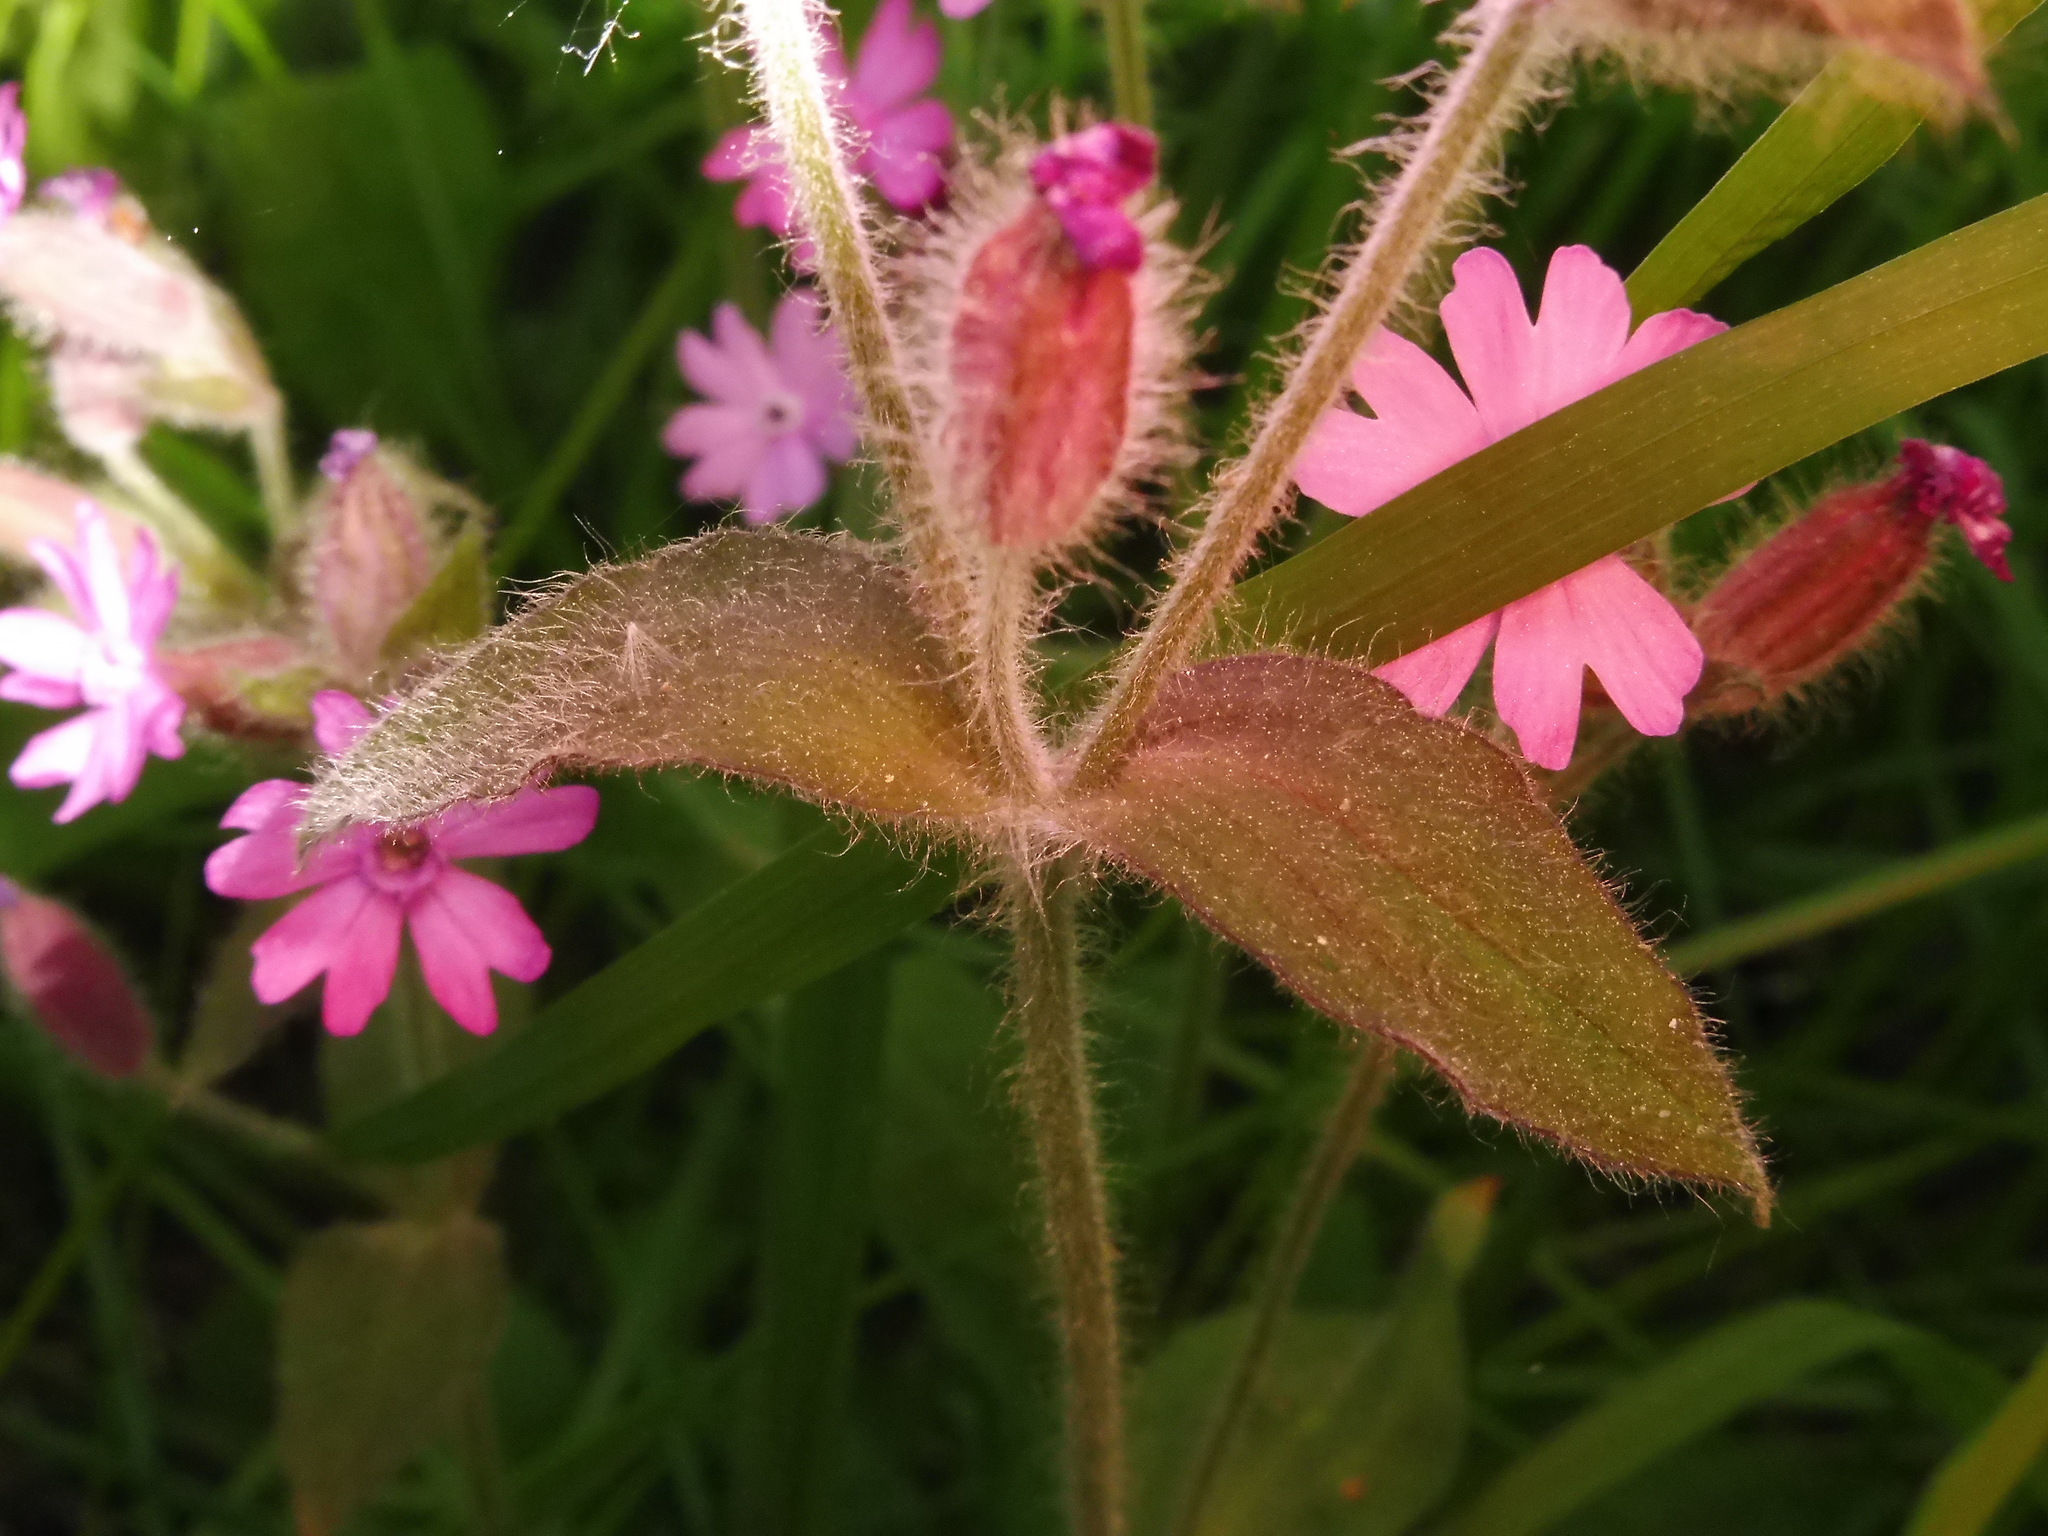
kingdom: Plantae
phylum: Tracheophyta
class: Magnoliopsida
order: Caryophyllales
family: Caryophyllaceae
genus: Silene
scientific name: Silene dioica
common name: Red campion
